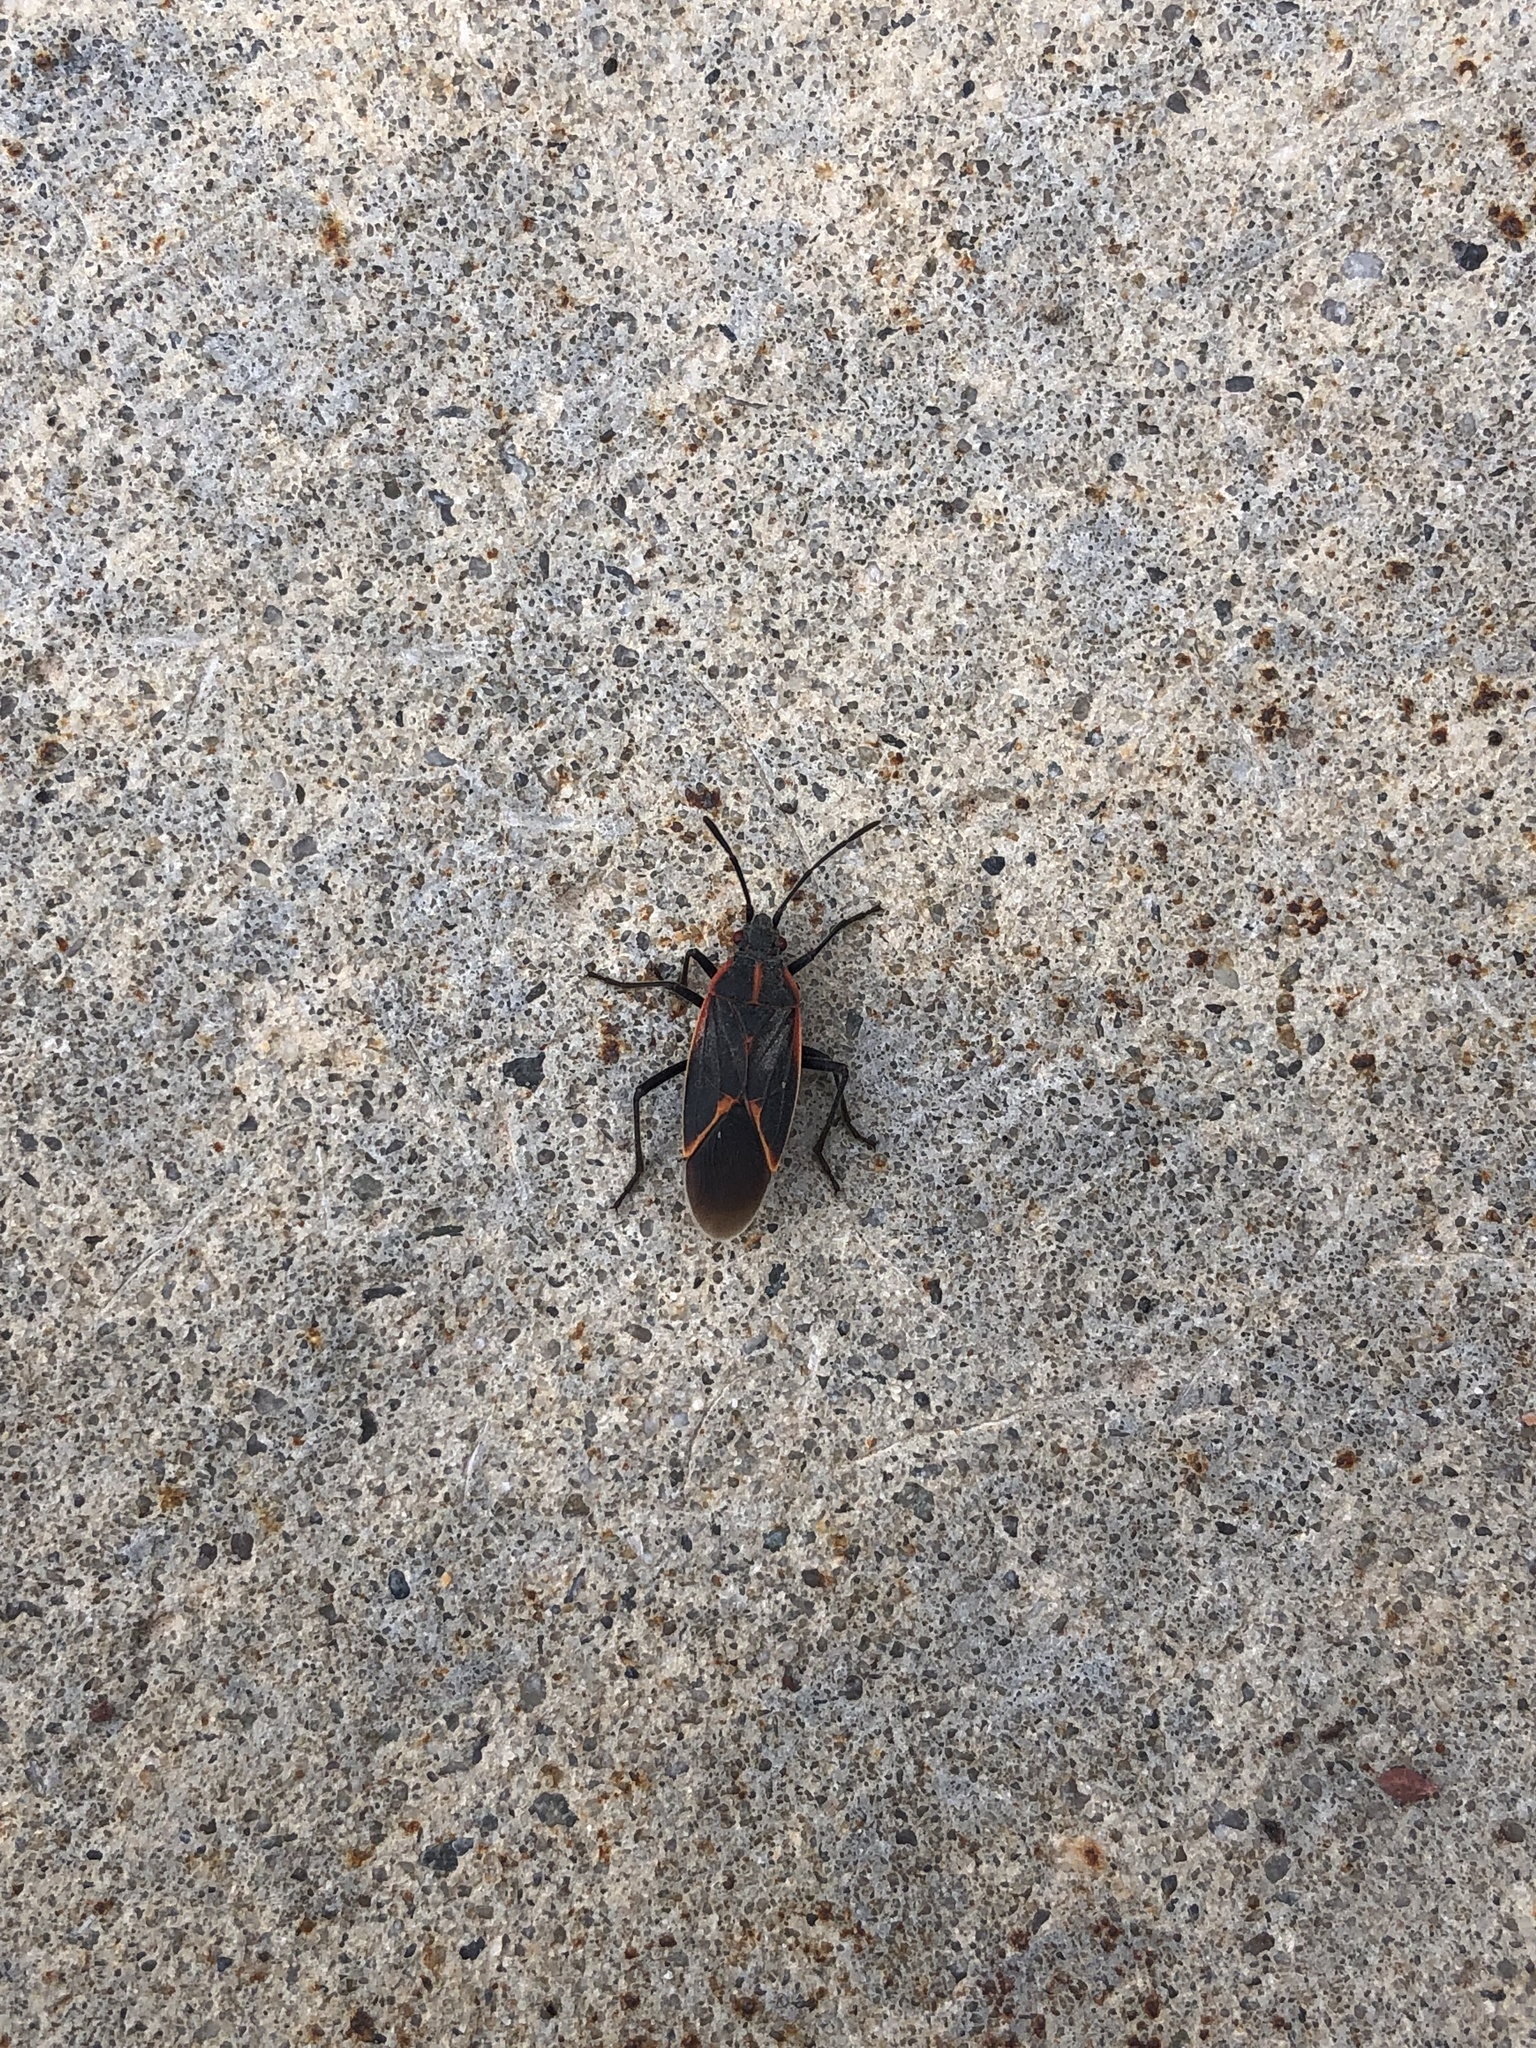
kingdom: Animalia
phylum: Arthropoda
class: Insecta
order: Hemiptera
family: Rhopalidae
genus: Boisea
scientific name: Boisea trivittata
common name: Boxelder bug
